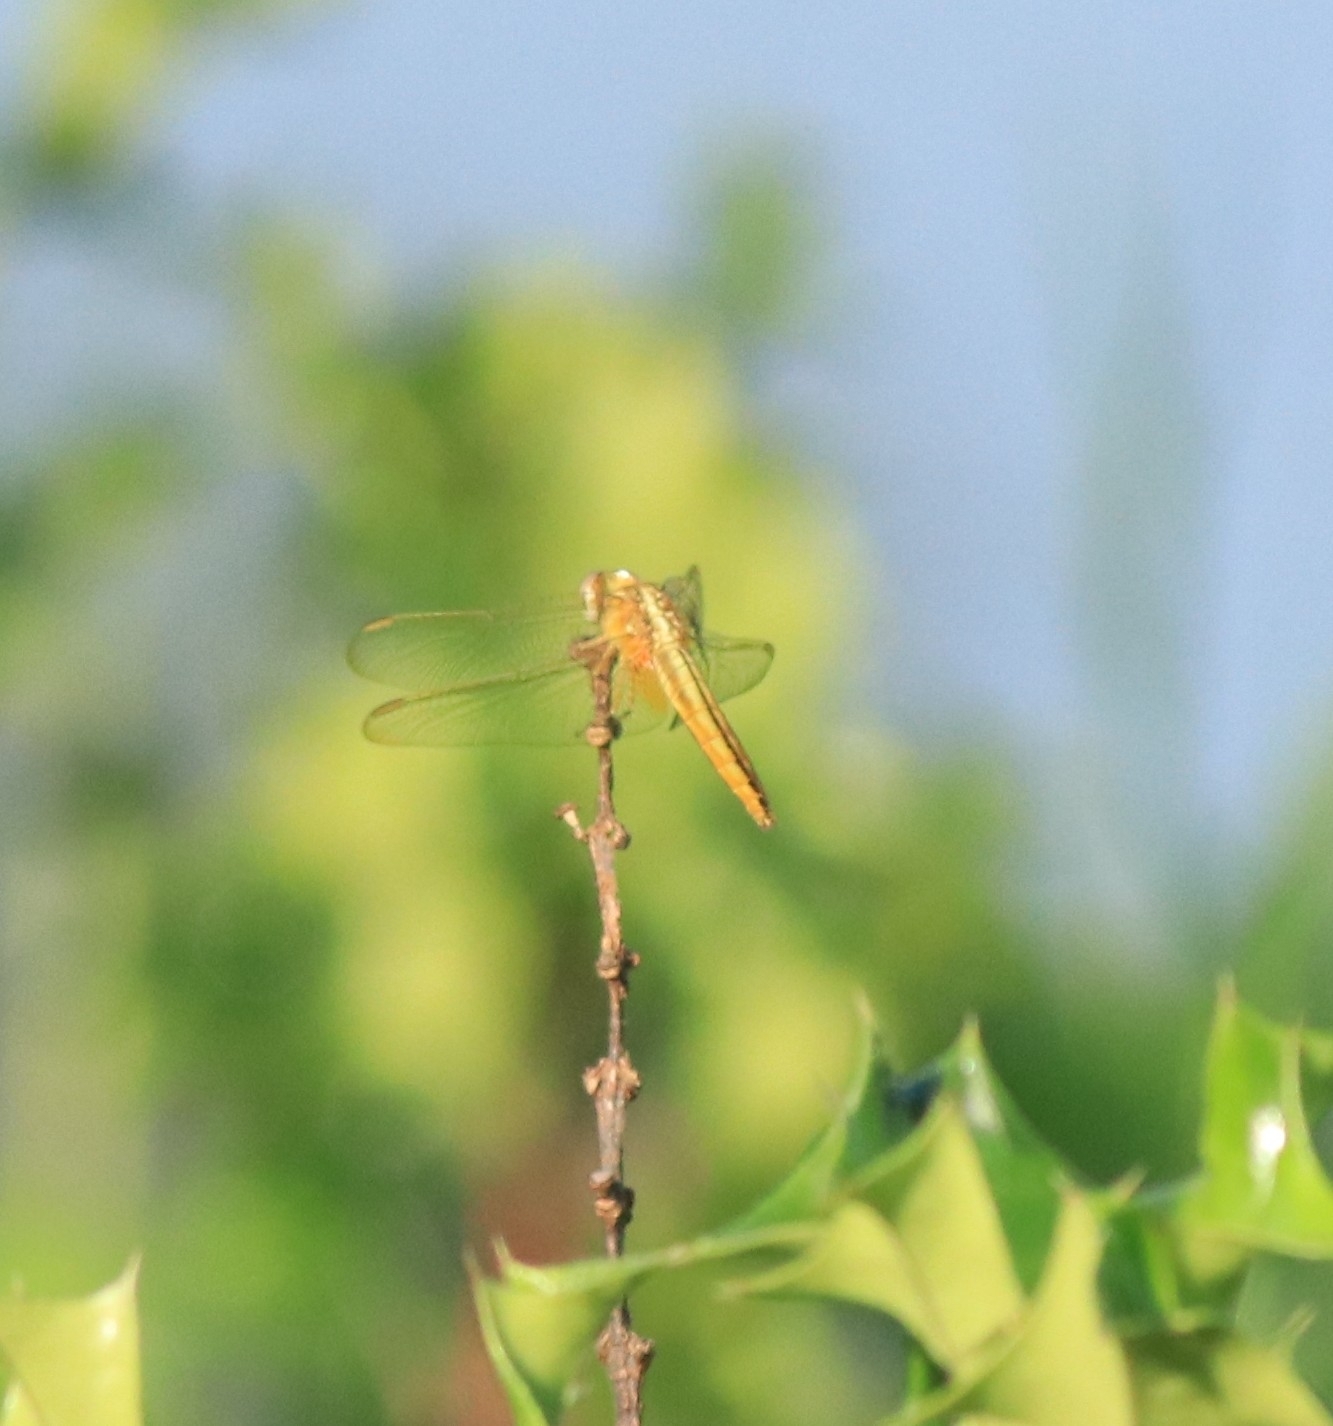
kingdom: Animalia
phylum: Arthropoda
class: Insecta
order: Odonata
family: Libellulidae
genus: Crocothemis
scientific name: Crocothemis servilia
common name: Scarlet skimmer
